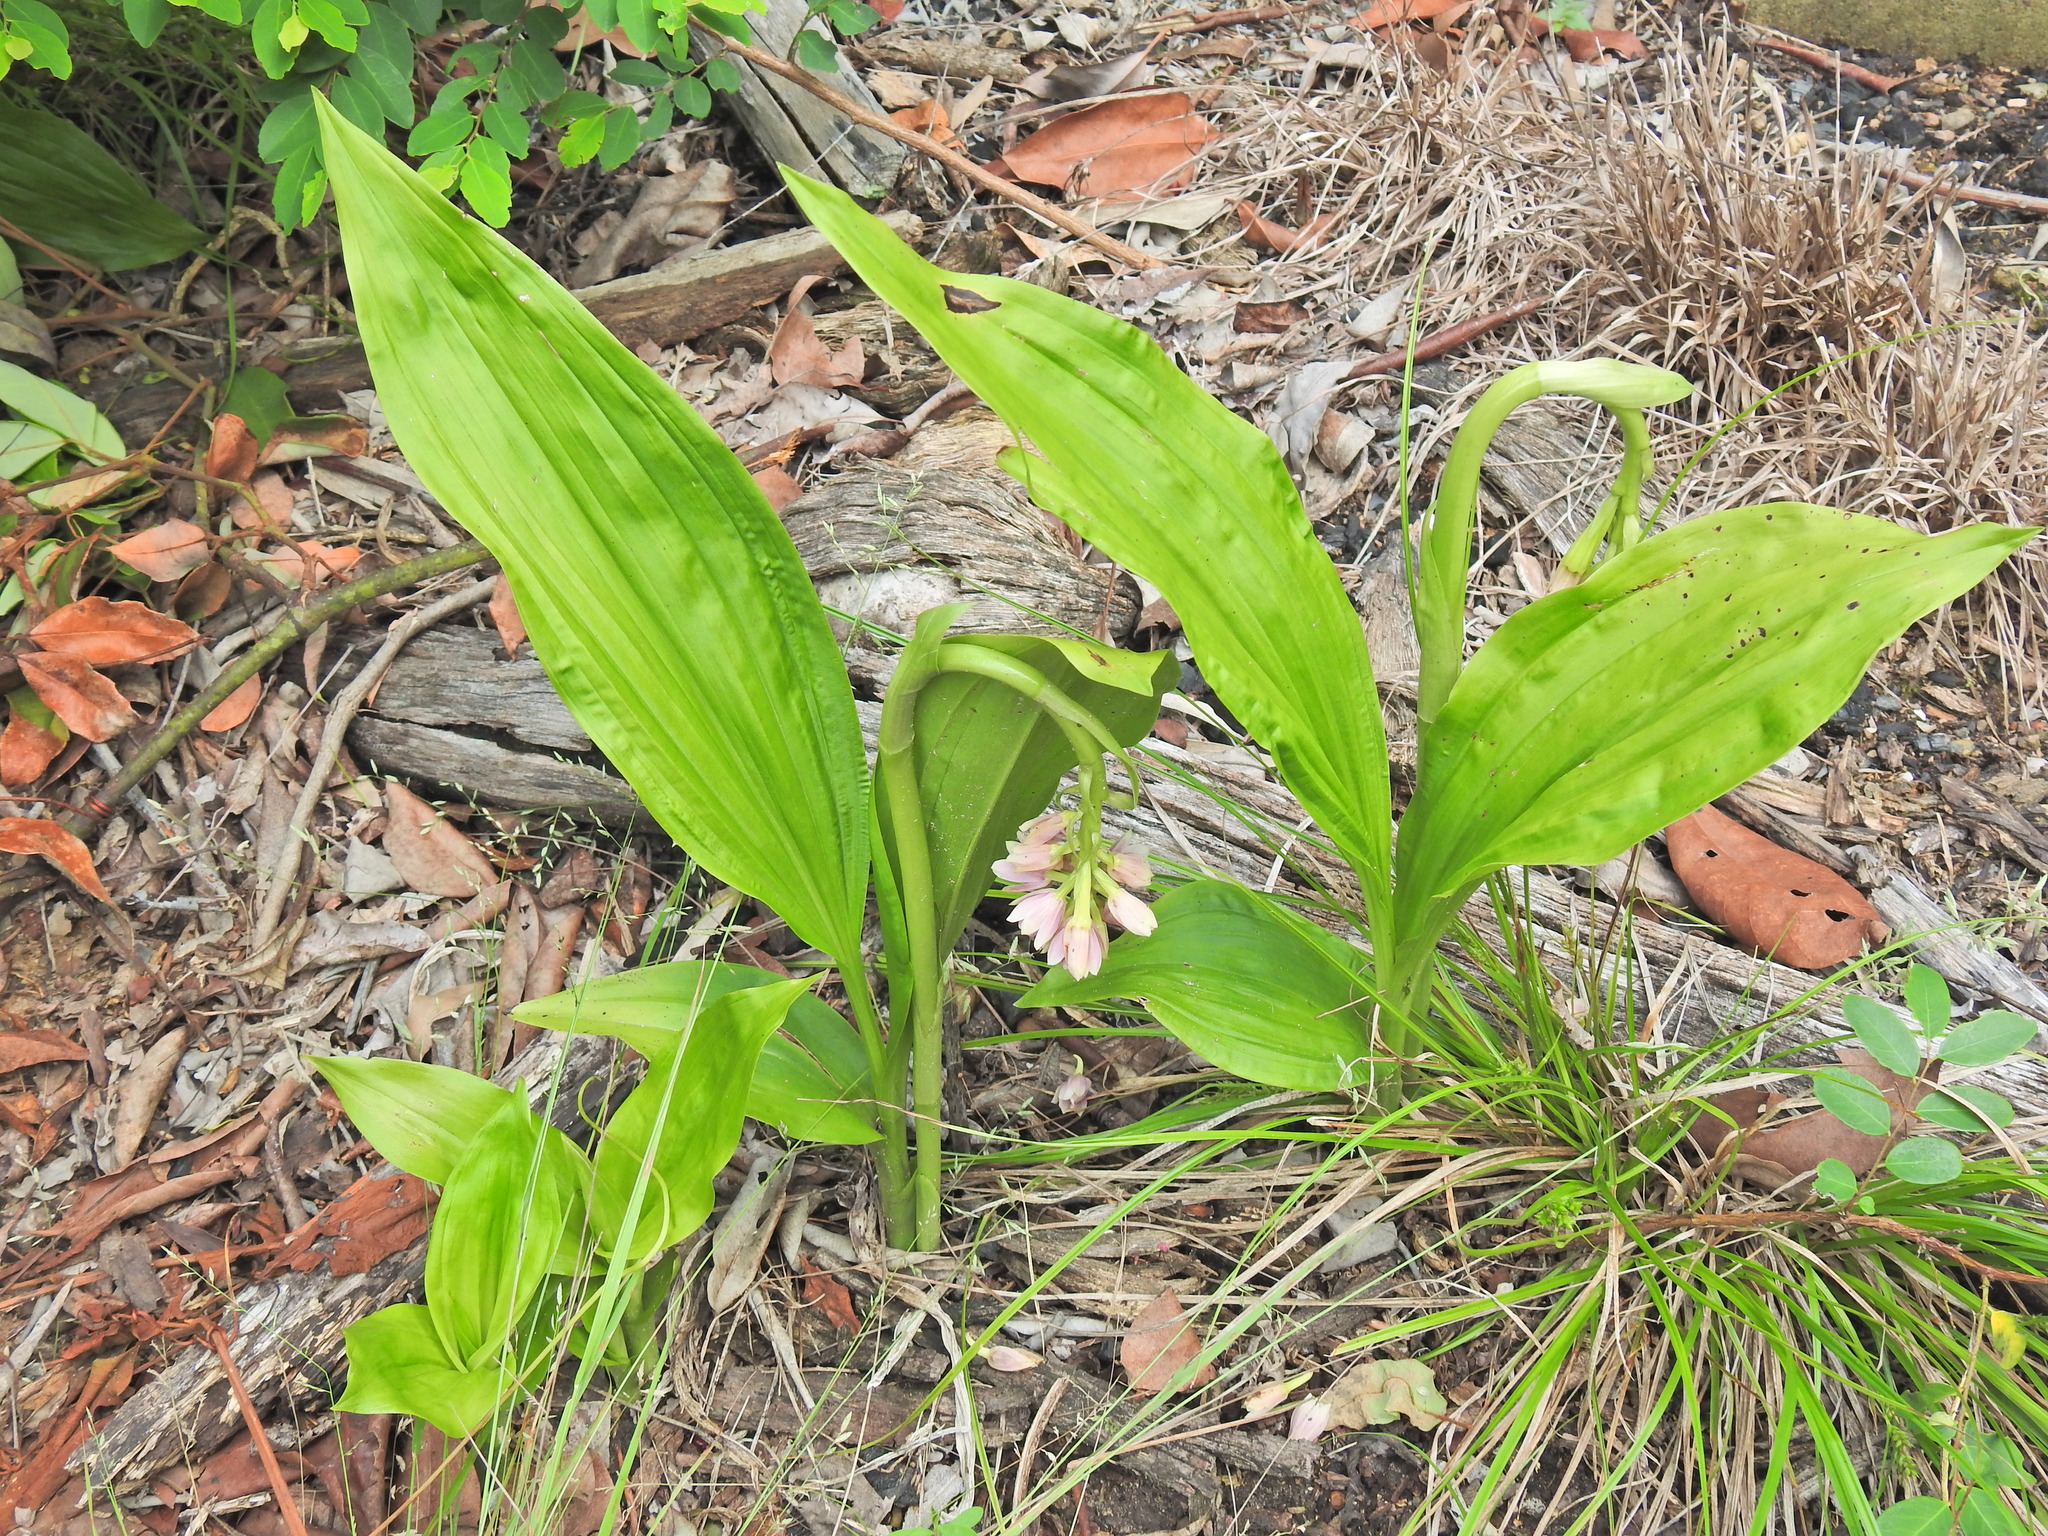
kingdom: Plantae
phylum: Tracheophyta
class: Liliopsida
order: Asparagales
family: Orchidaceae
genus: Eulophia
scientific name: Eulophia cernua
